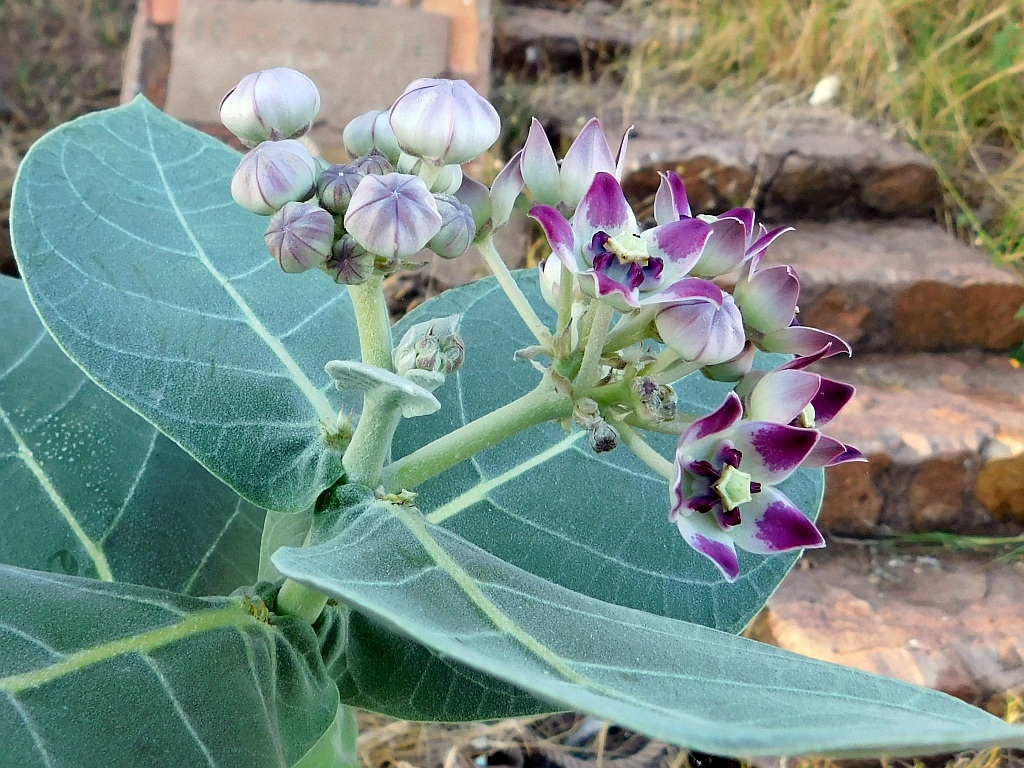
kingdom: Plantae
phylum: Tracheophyta
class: Magnoliopsida
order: Gentianales
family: Apocynaceae
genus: Calotropis
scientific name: Calotropis procera
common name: Roostertree
